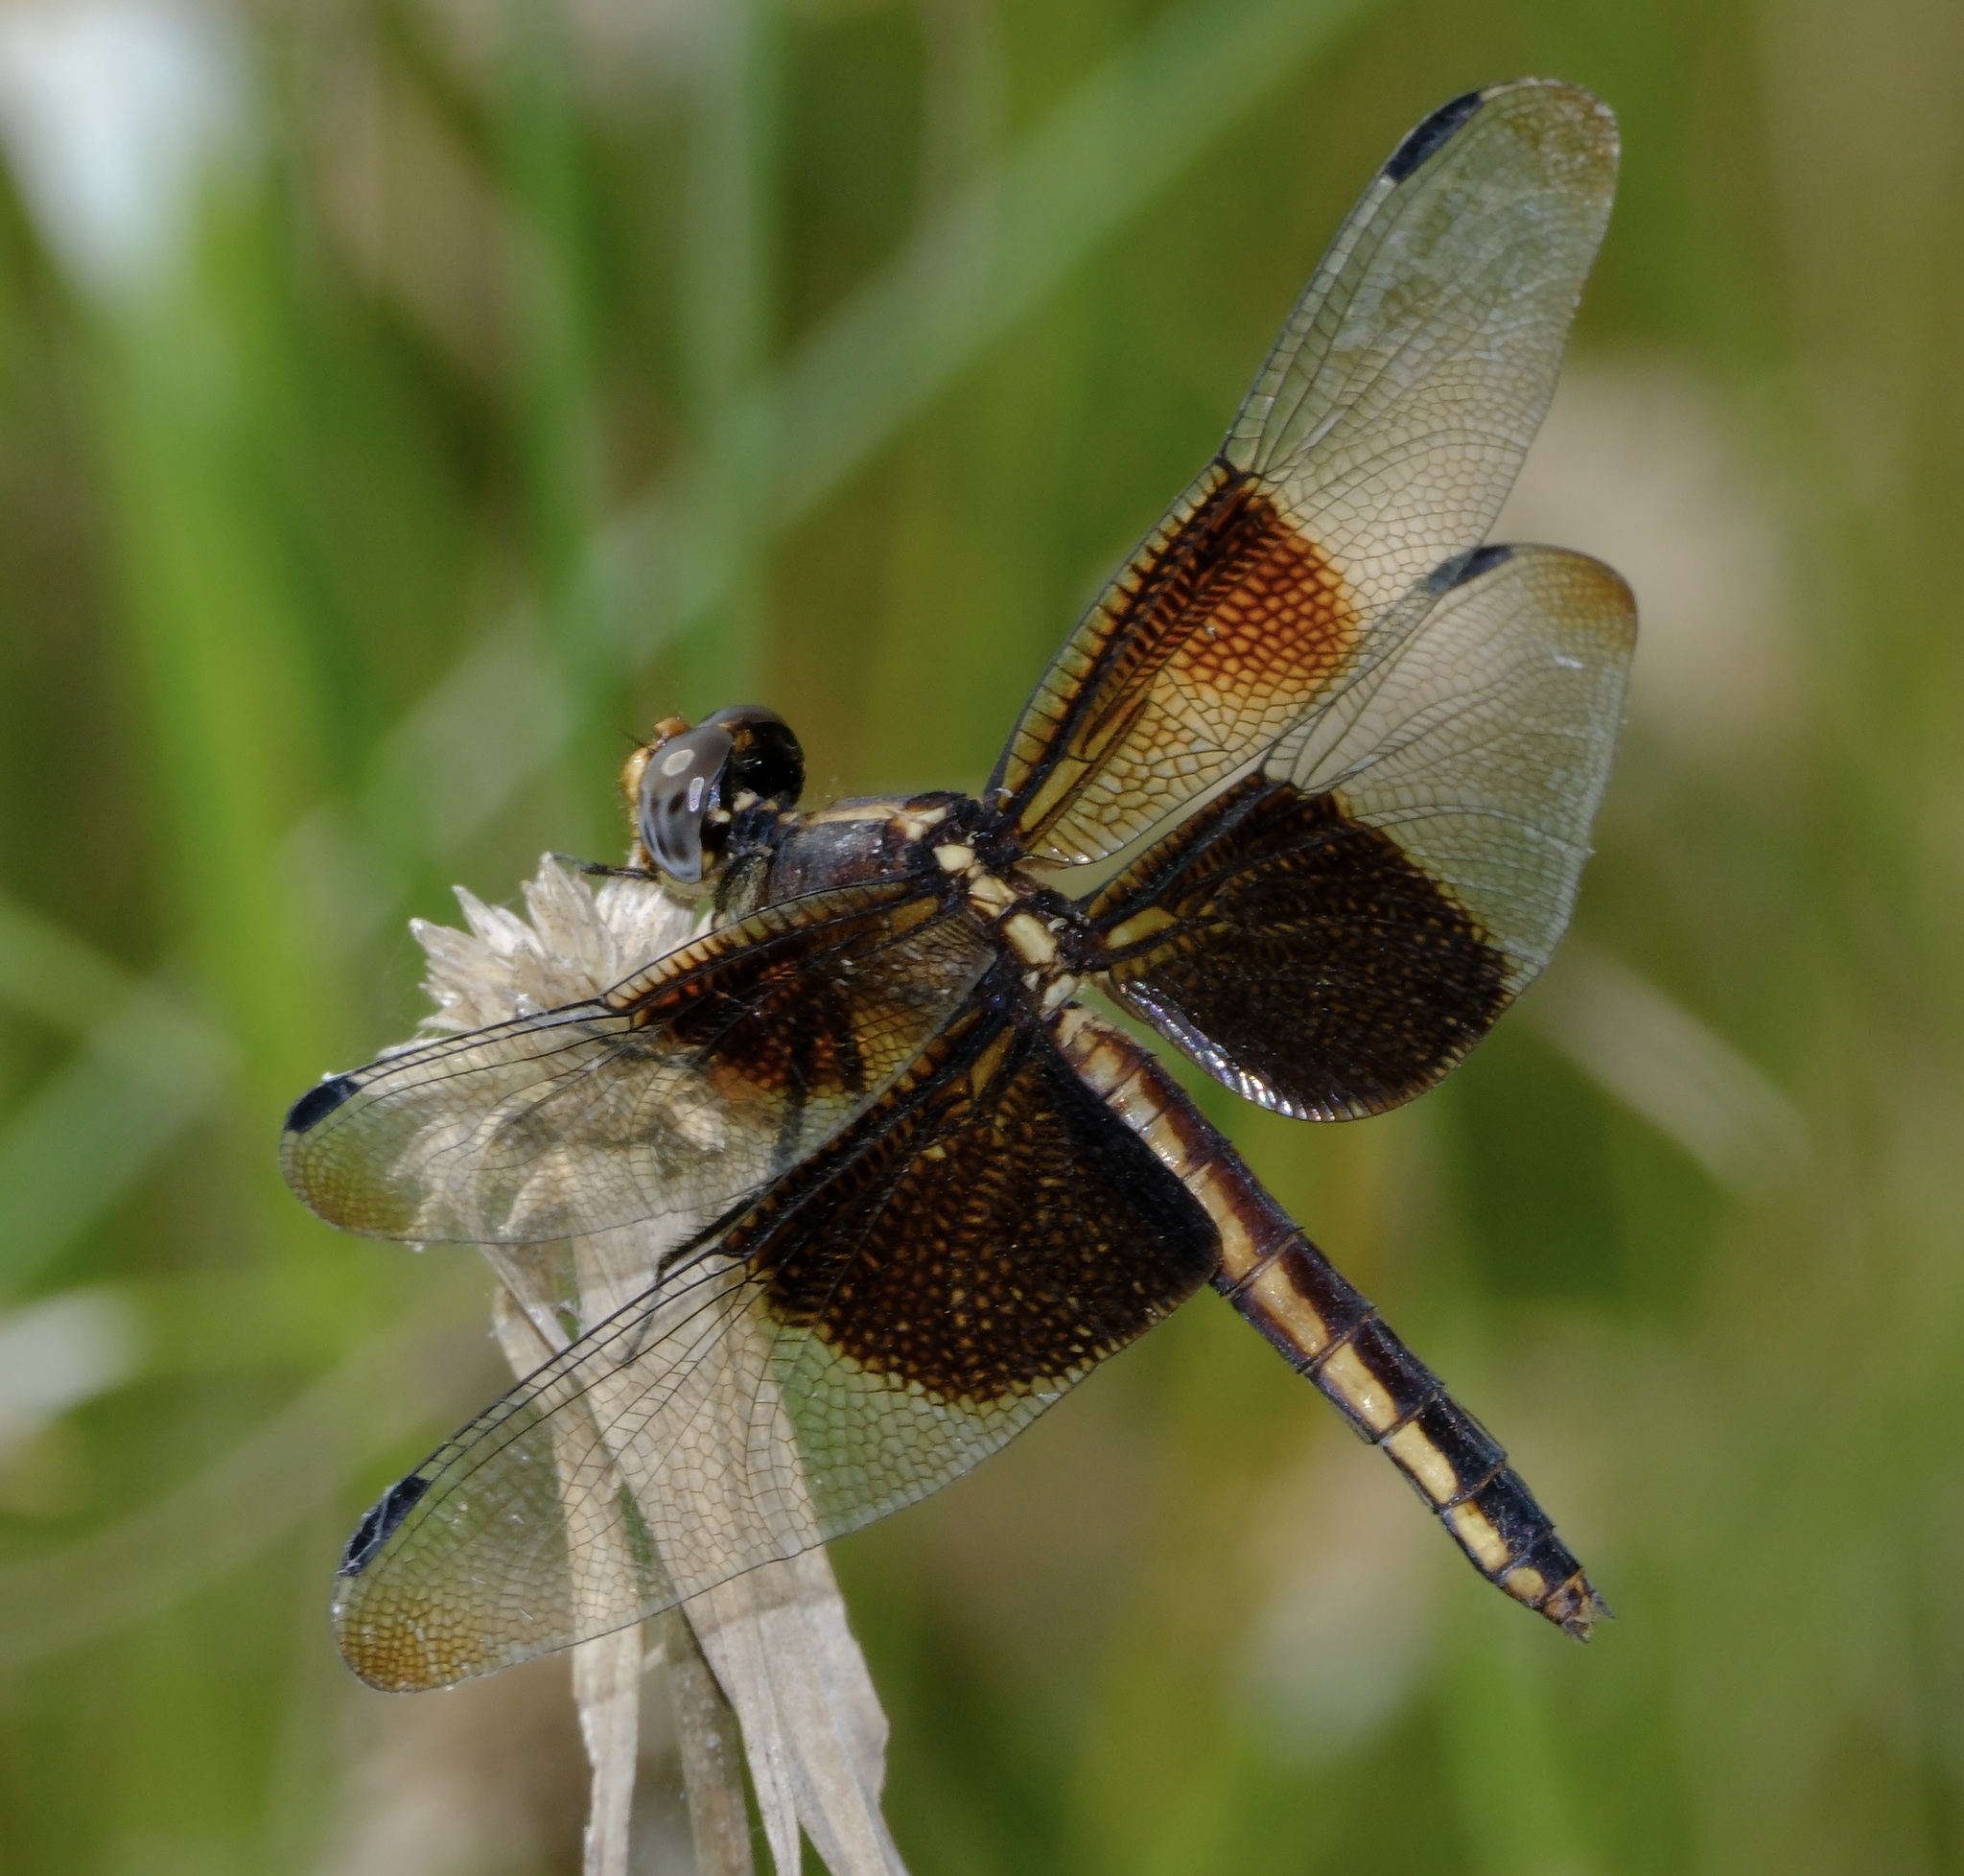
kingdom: Animalia
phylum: Arthropoda
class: Insecta
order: Odonata
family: Libellulidae
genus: Libellula
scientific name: Libellula luctuosa
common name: Widow skimmer
